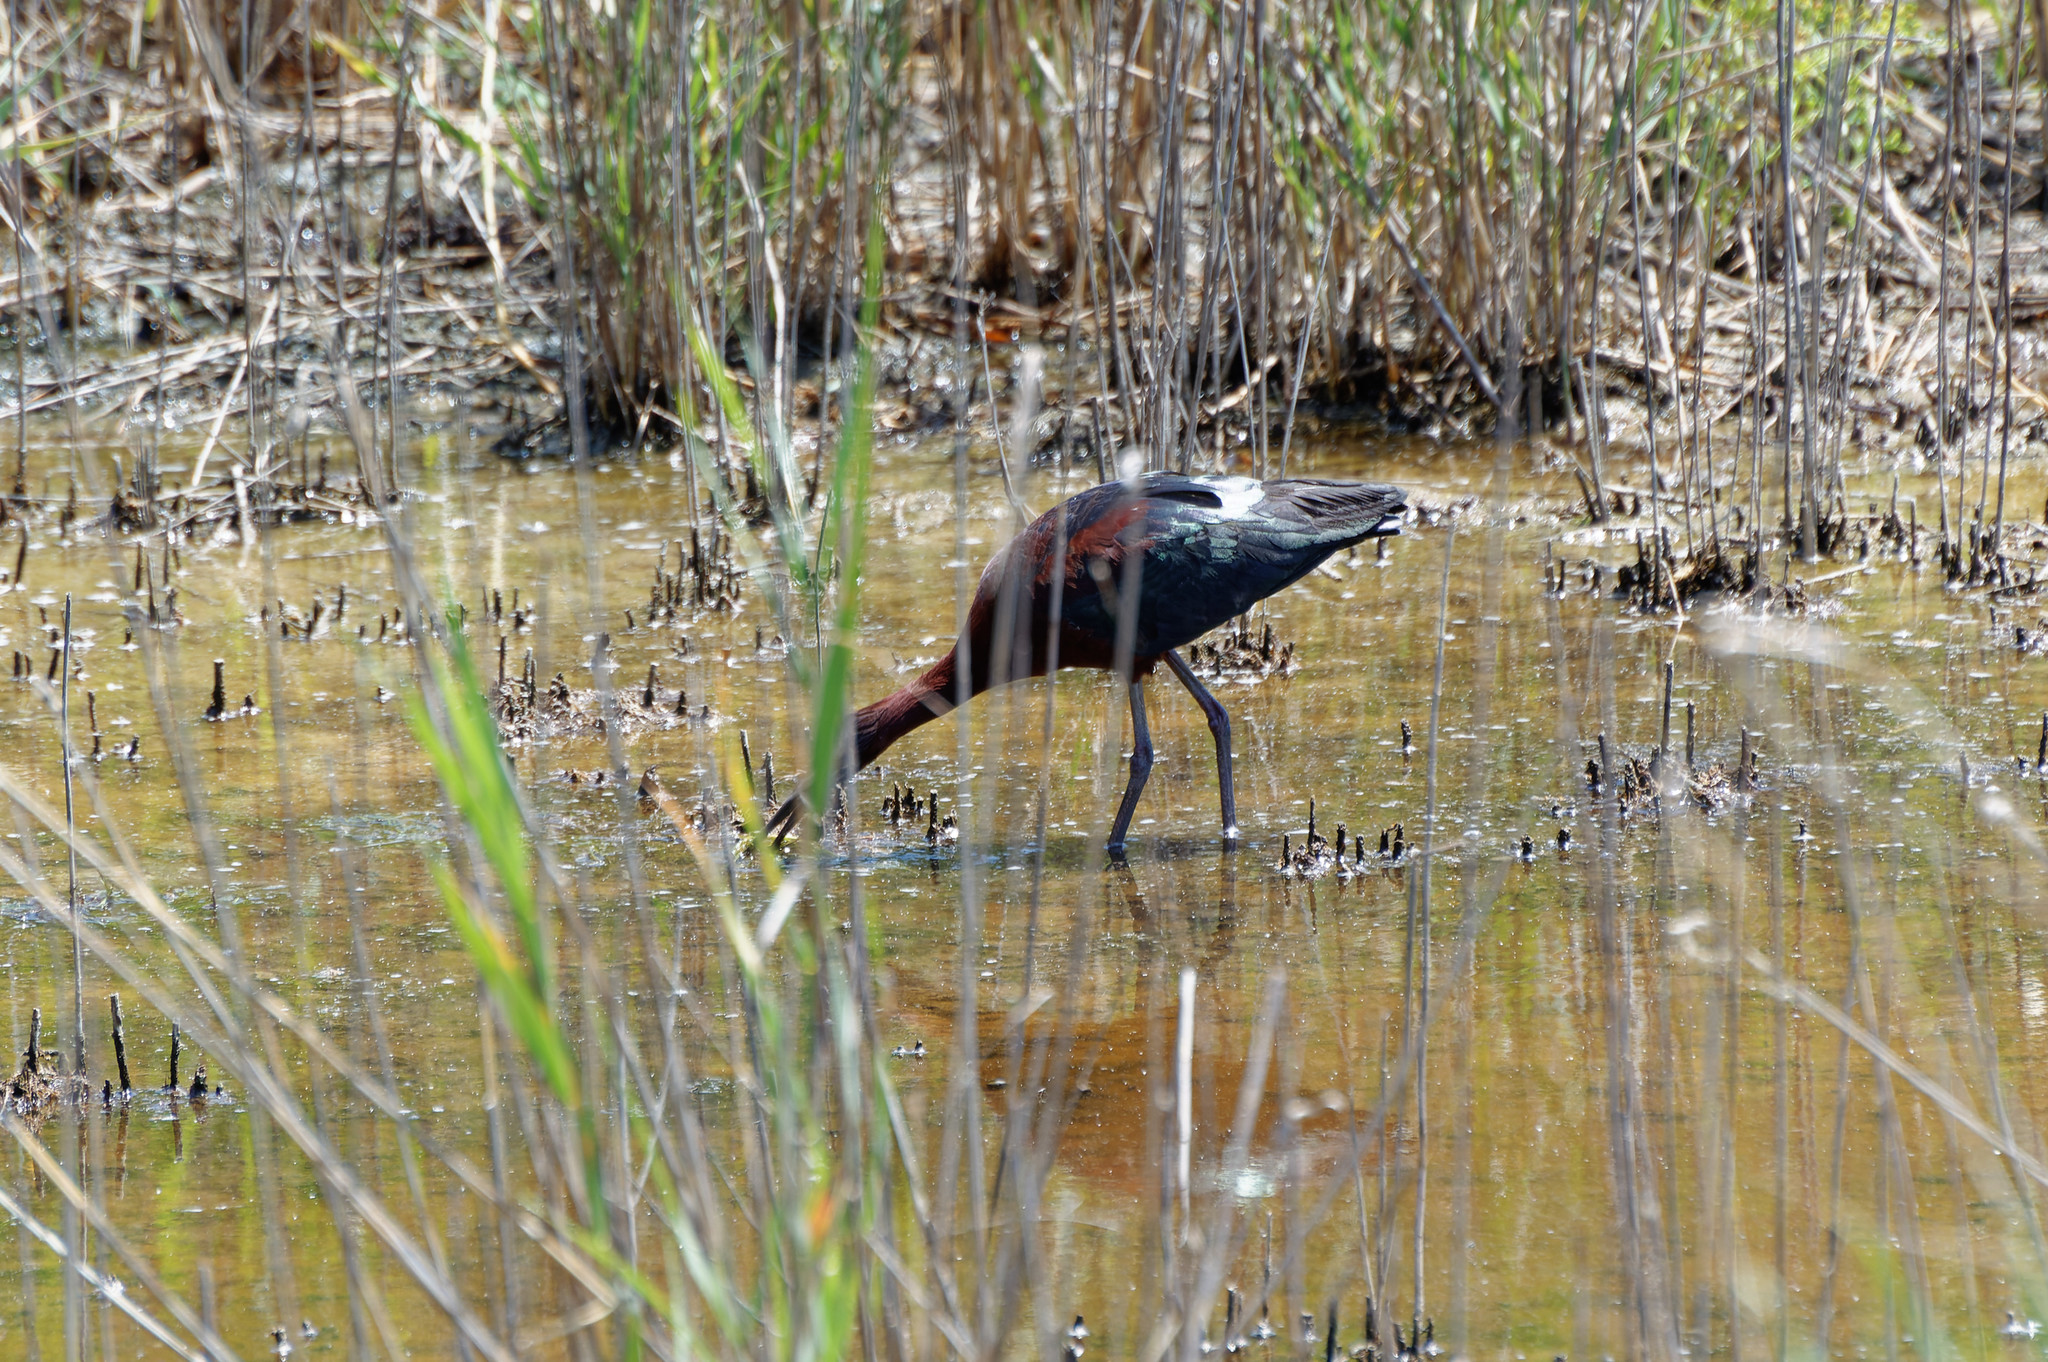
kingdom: Animalia
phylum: Chordata
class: Aves
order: Pelecaniformes
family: Threskiornithidae
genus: Plegadis
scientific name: Plegadis falcinellus
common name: Glossy ibis
